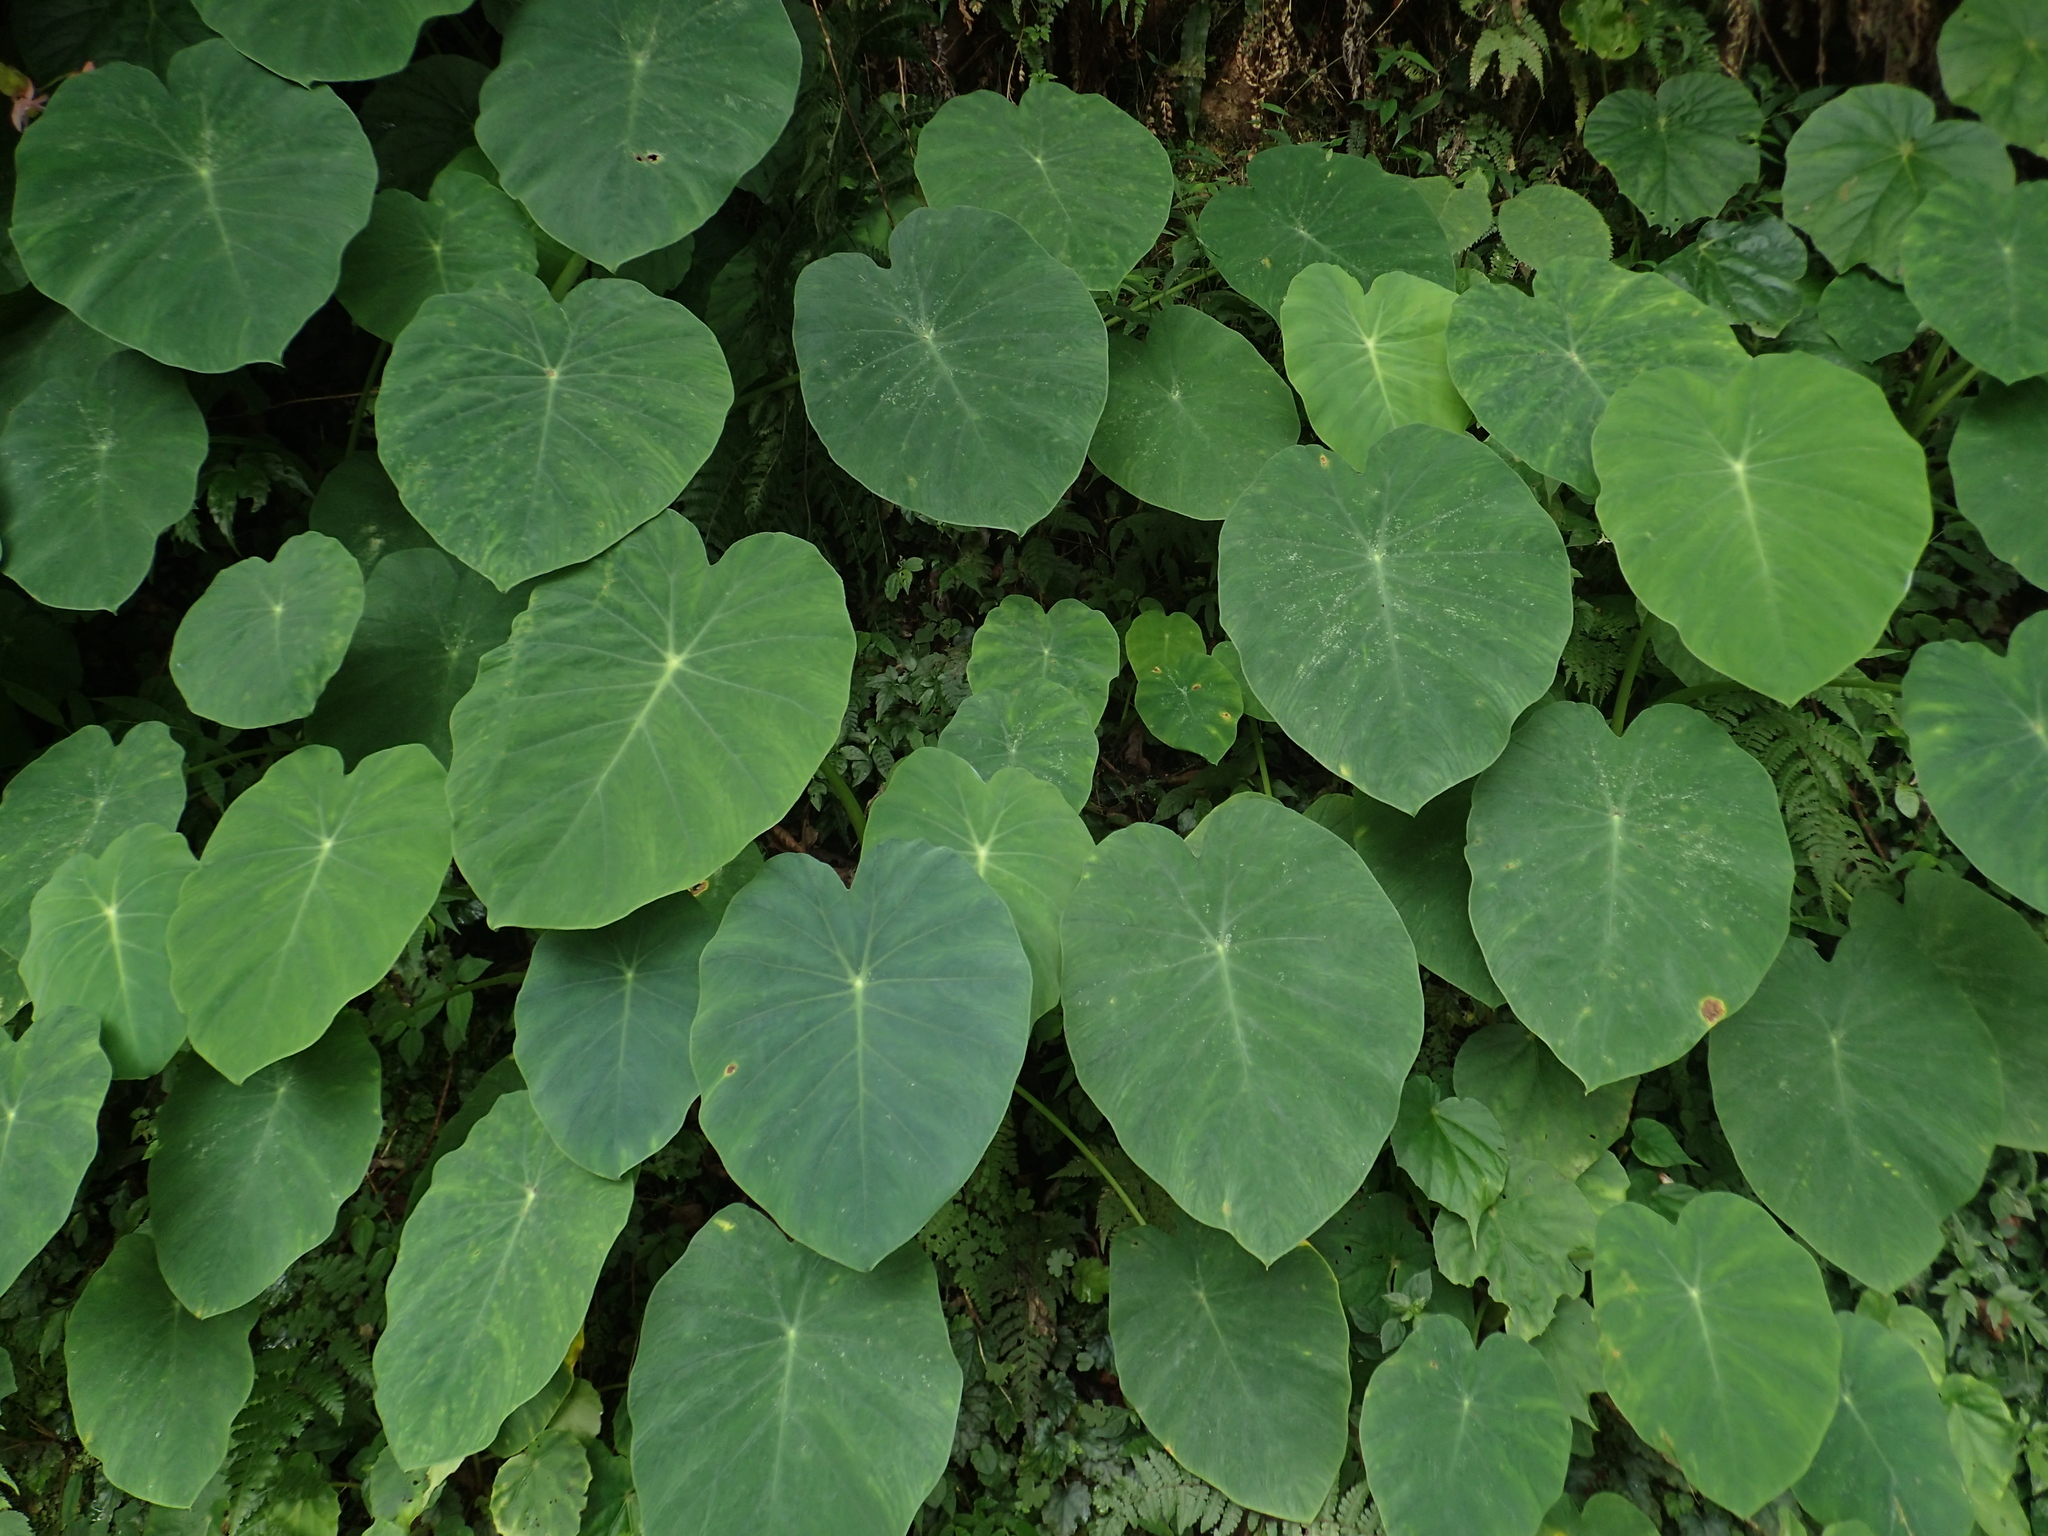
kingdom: Plantae
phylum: Tracheophyta
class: Liliopsida
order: Alismatales
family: Araceae
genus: Colocasia
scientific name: Colocasia esculenta
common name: Taro
